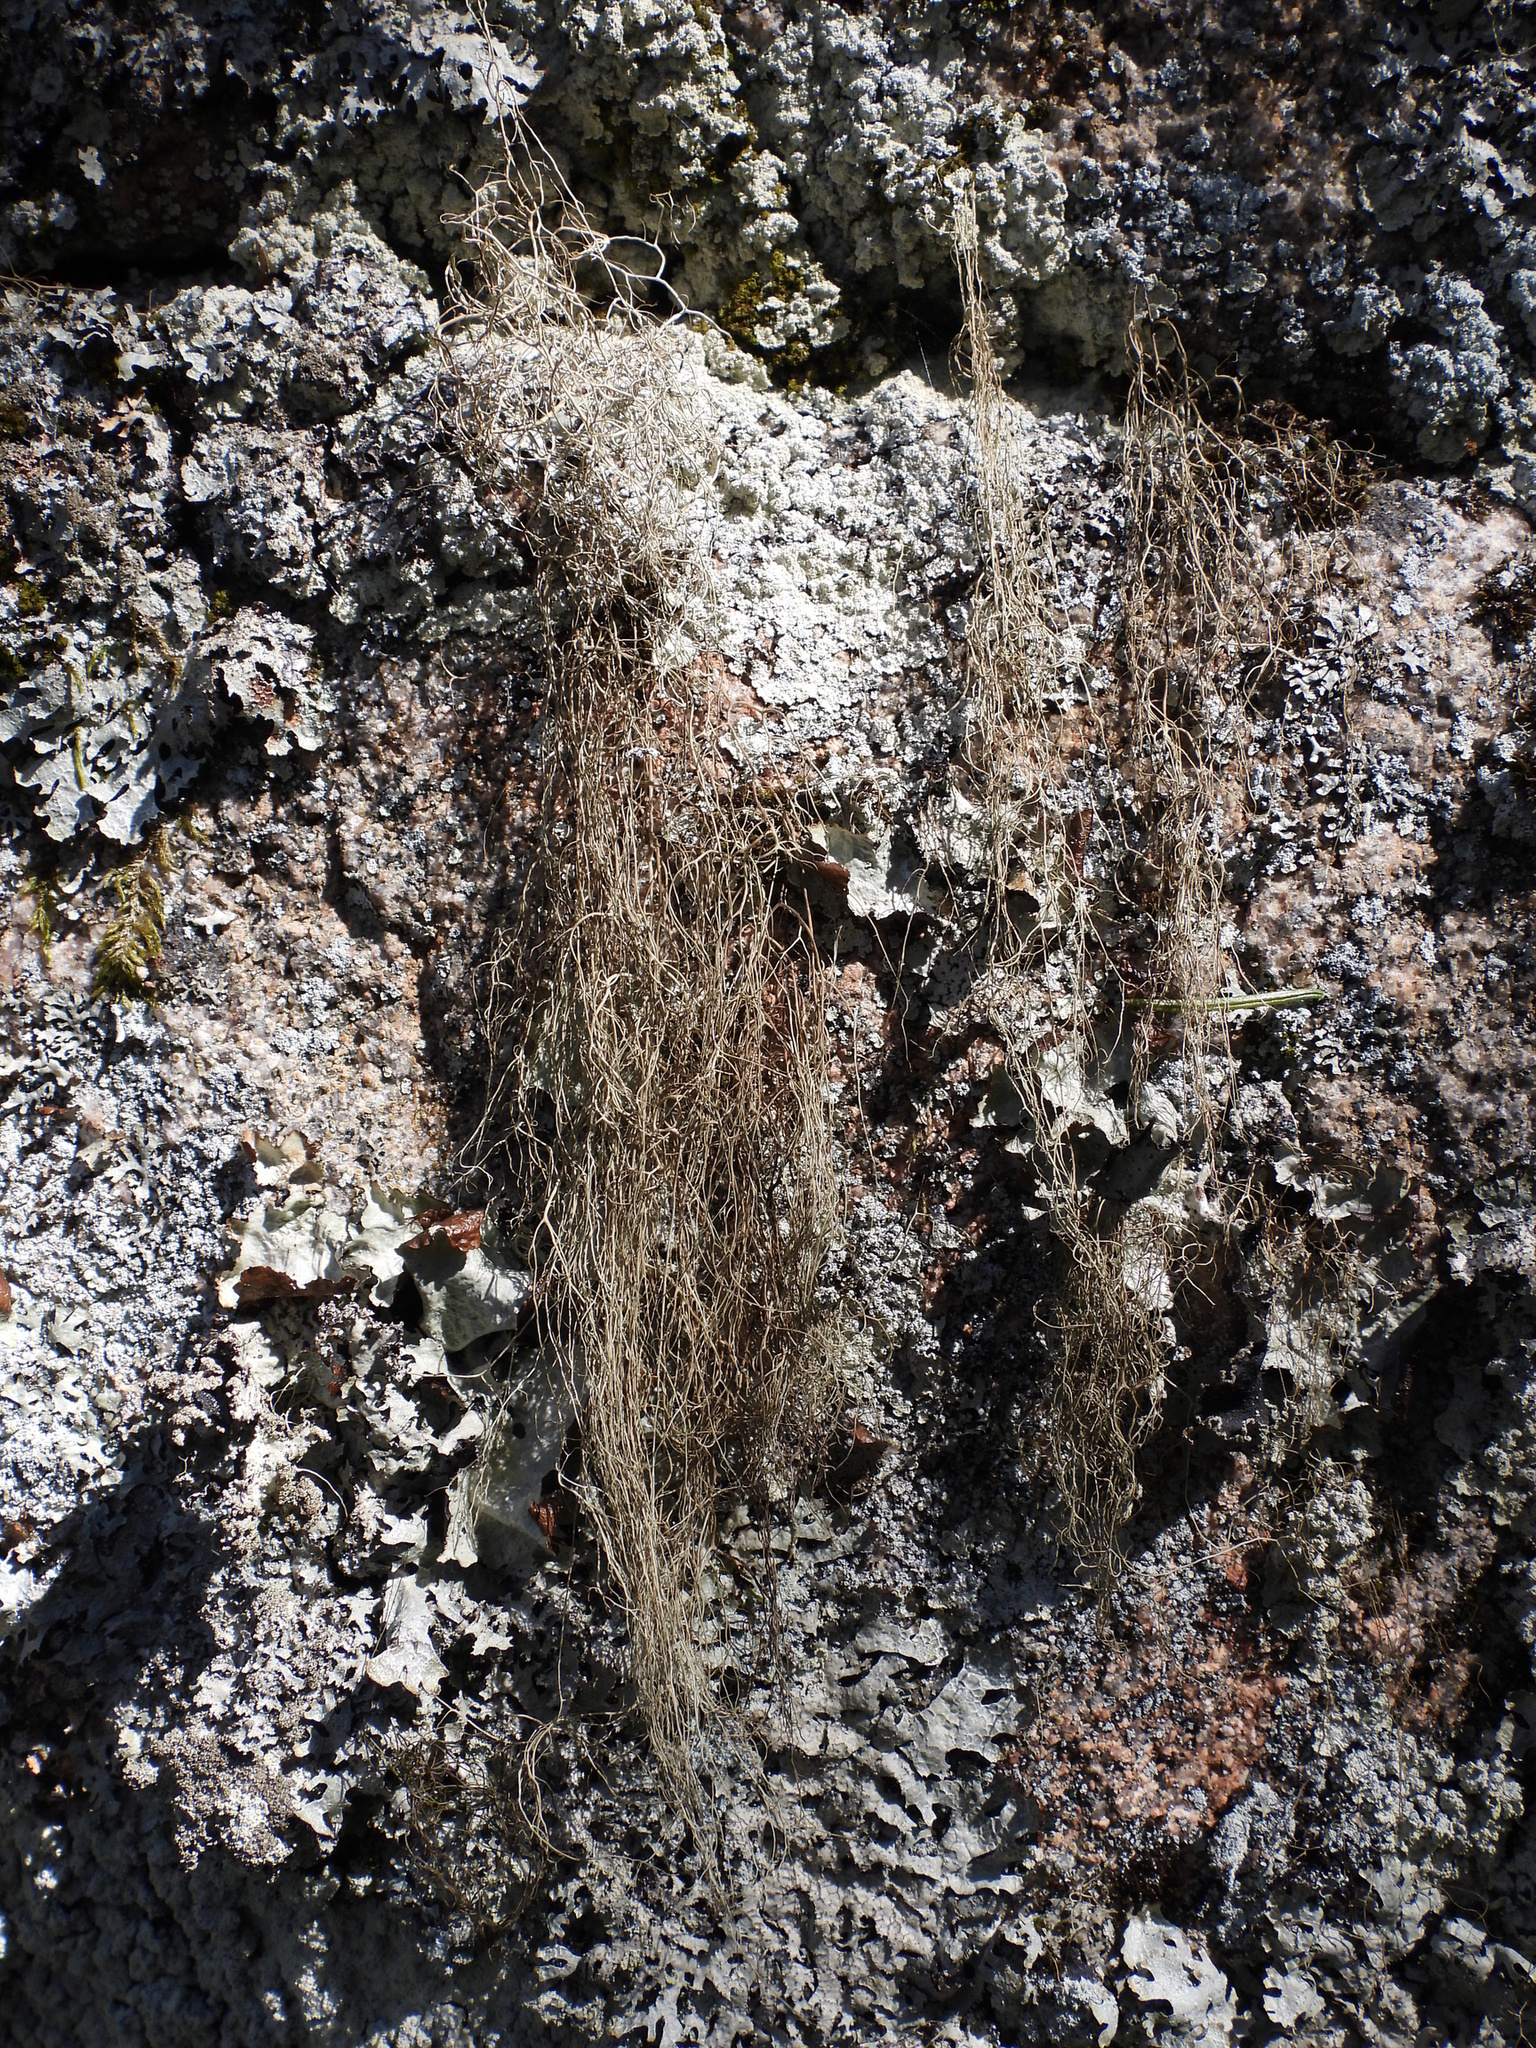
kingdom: Fungi
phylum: Ascomycota
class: Lecanoromycetes
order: Lecanorales
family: Parmeliaceae
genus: Bryoria
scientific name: Bryoria fuscescens
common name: Pale-footed horsehair lichen
